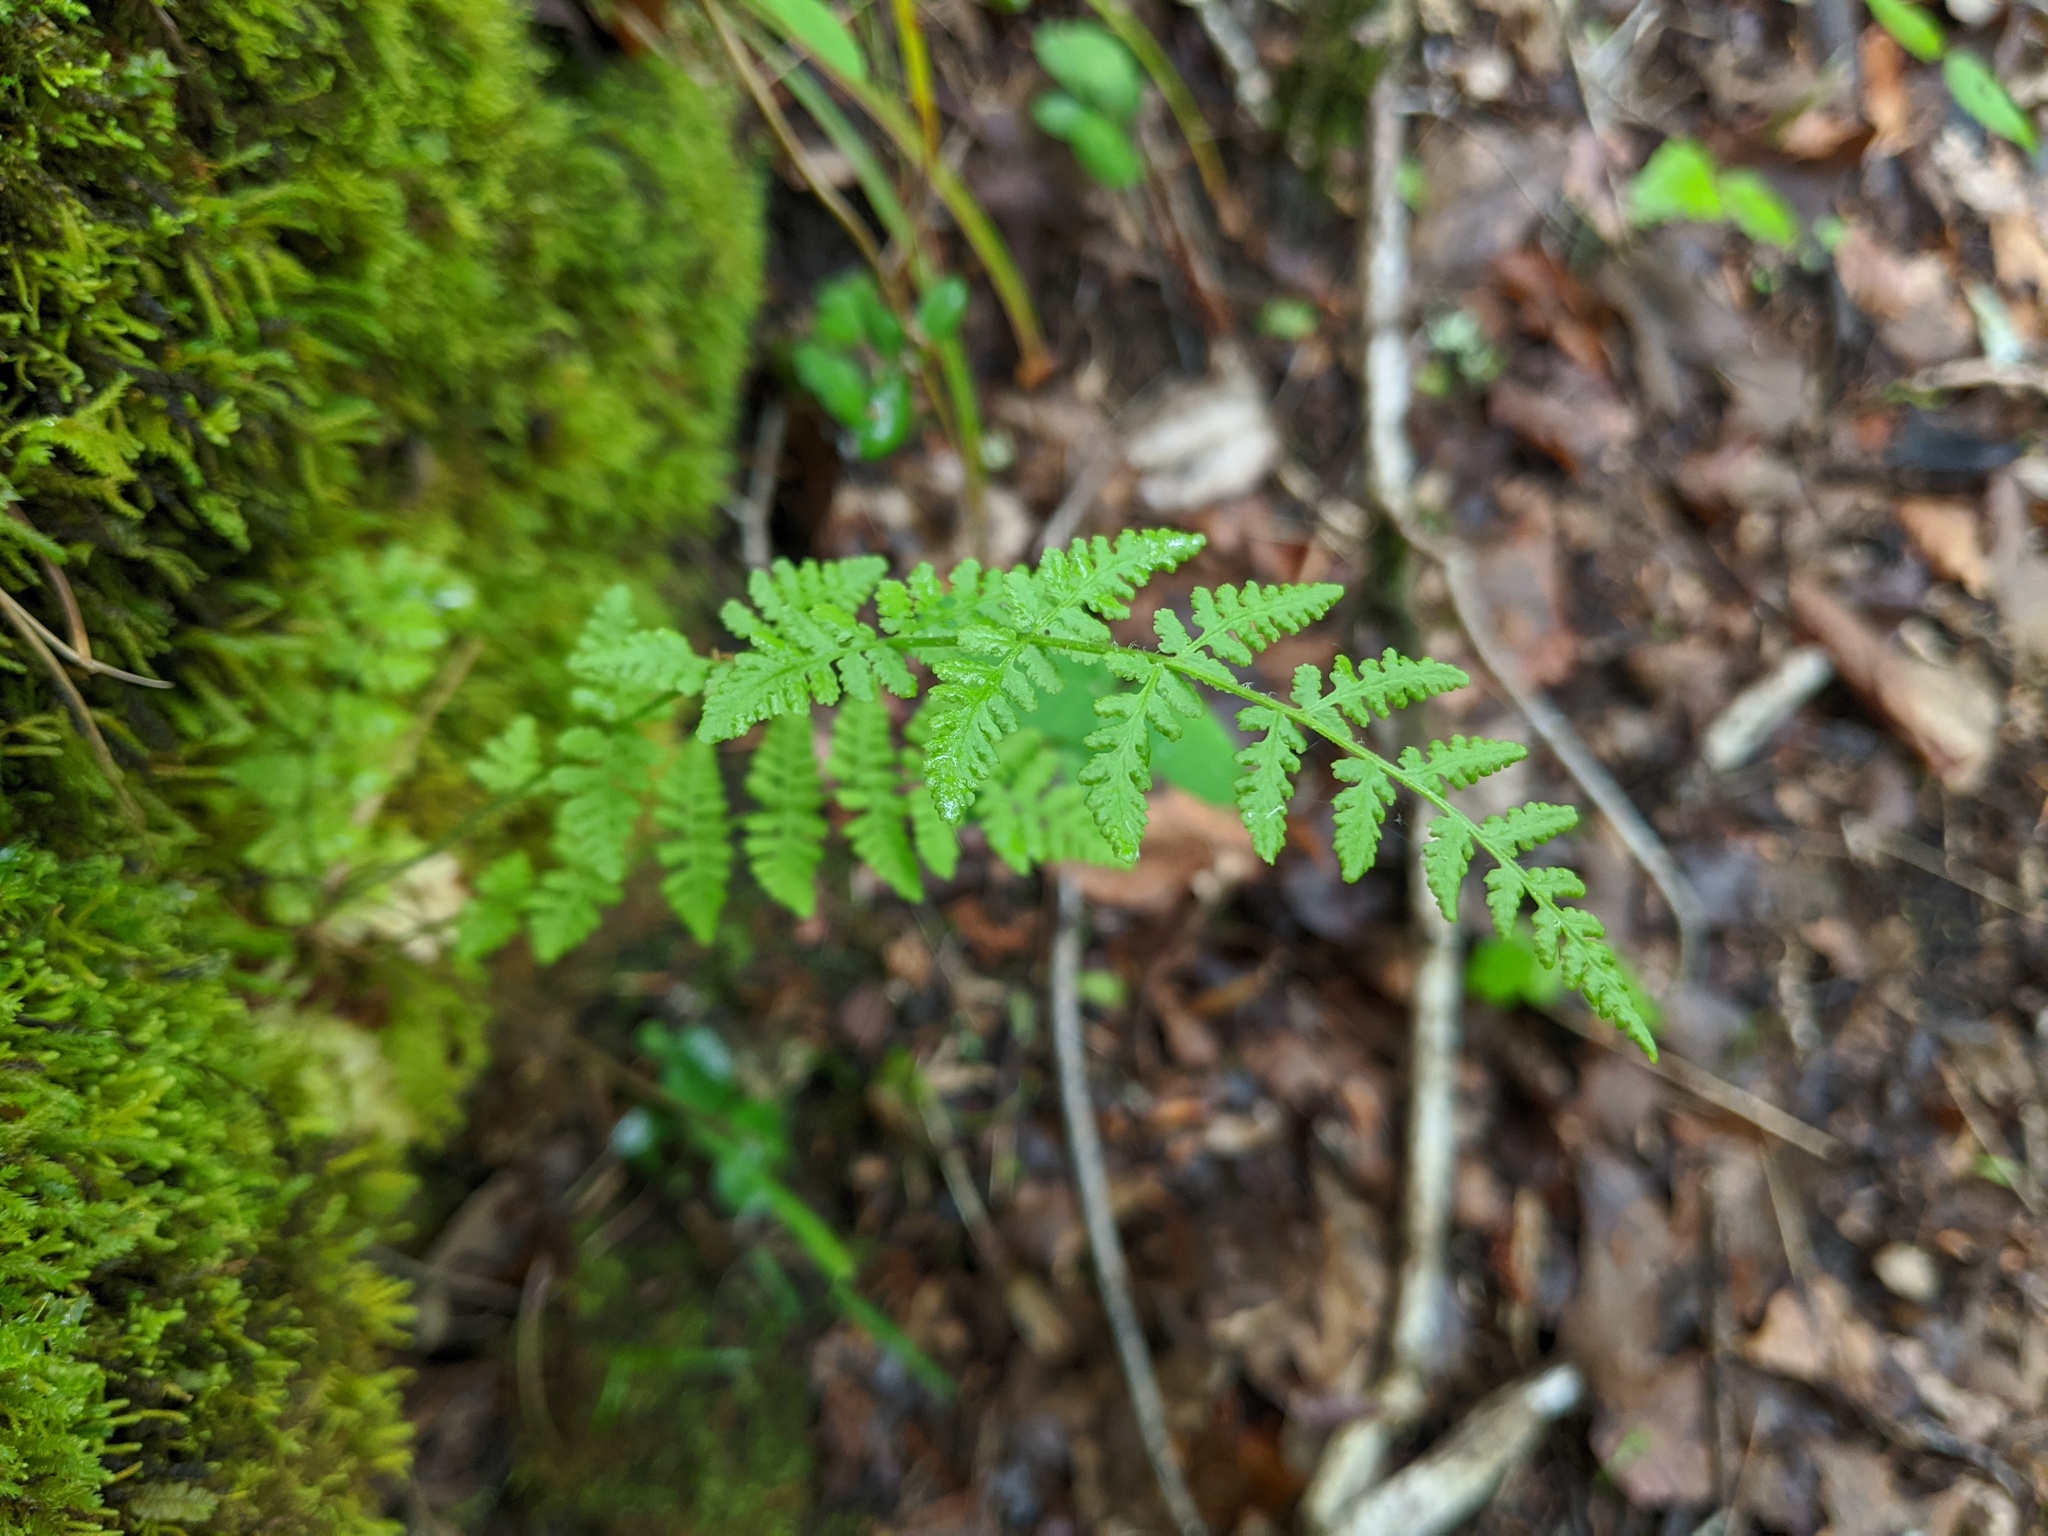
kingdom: Plantae
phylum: Tracheophyta
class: Polypodiopsida
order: Polypodiales
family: Woodsiaceae
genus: Physematium
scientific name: Physematium obtusum
